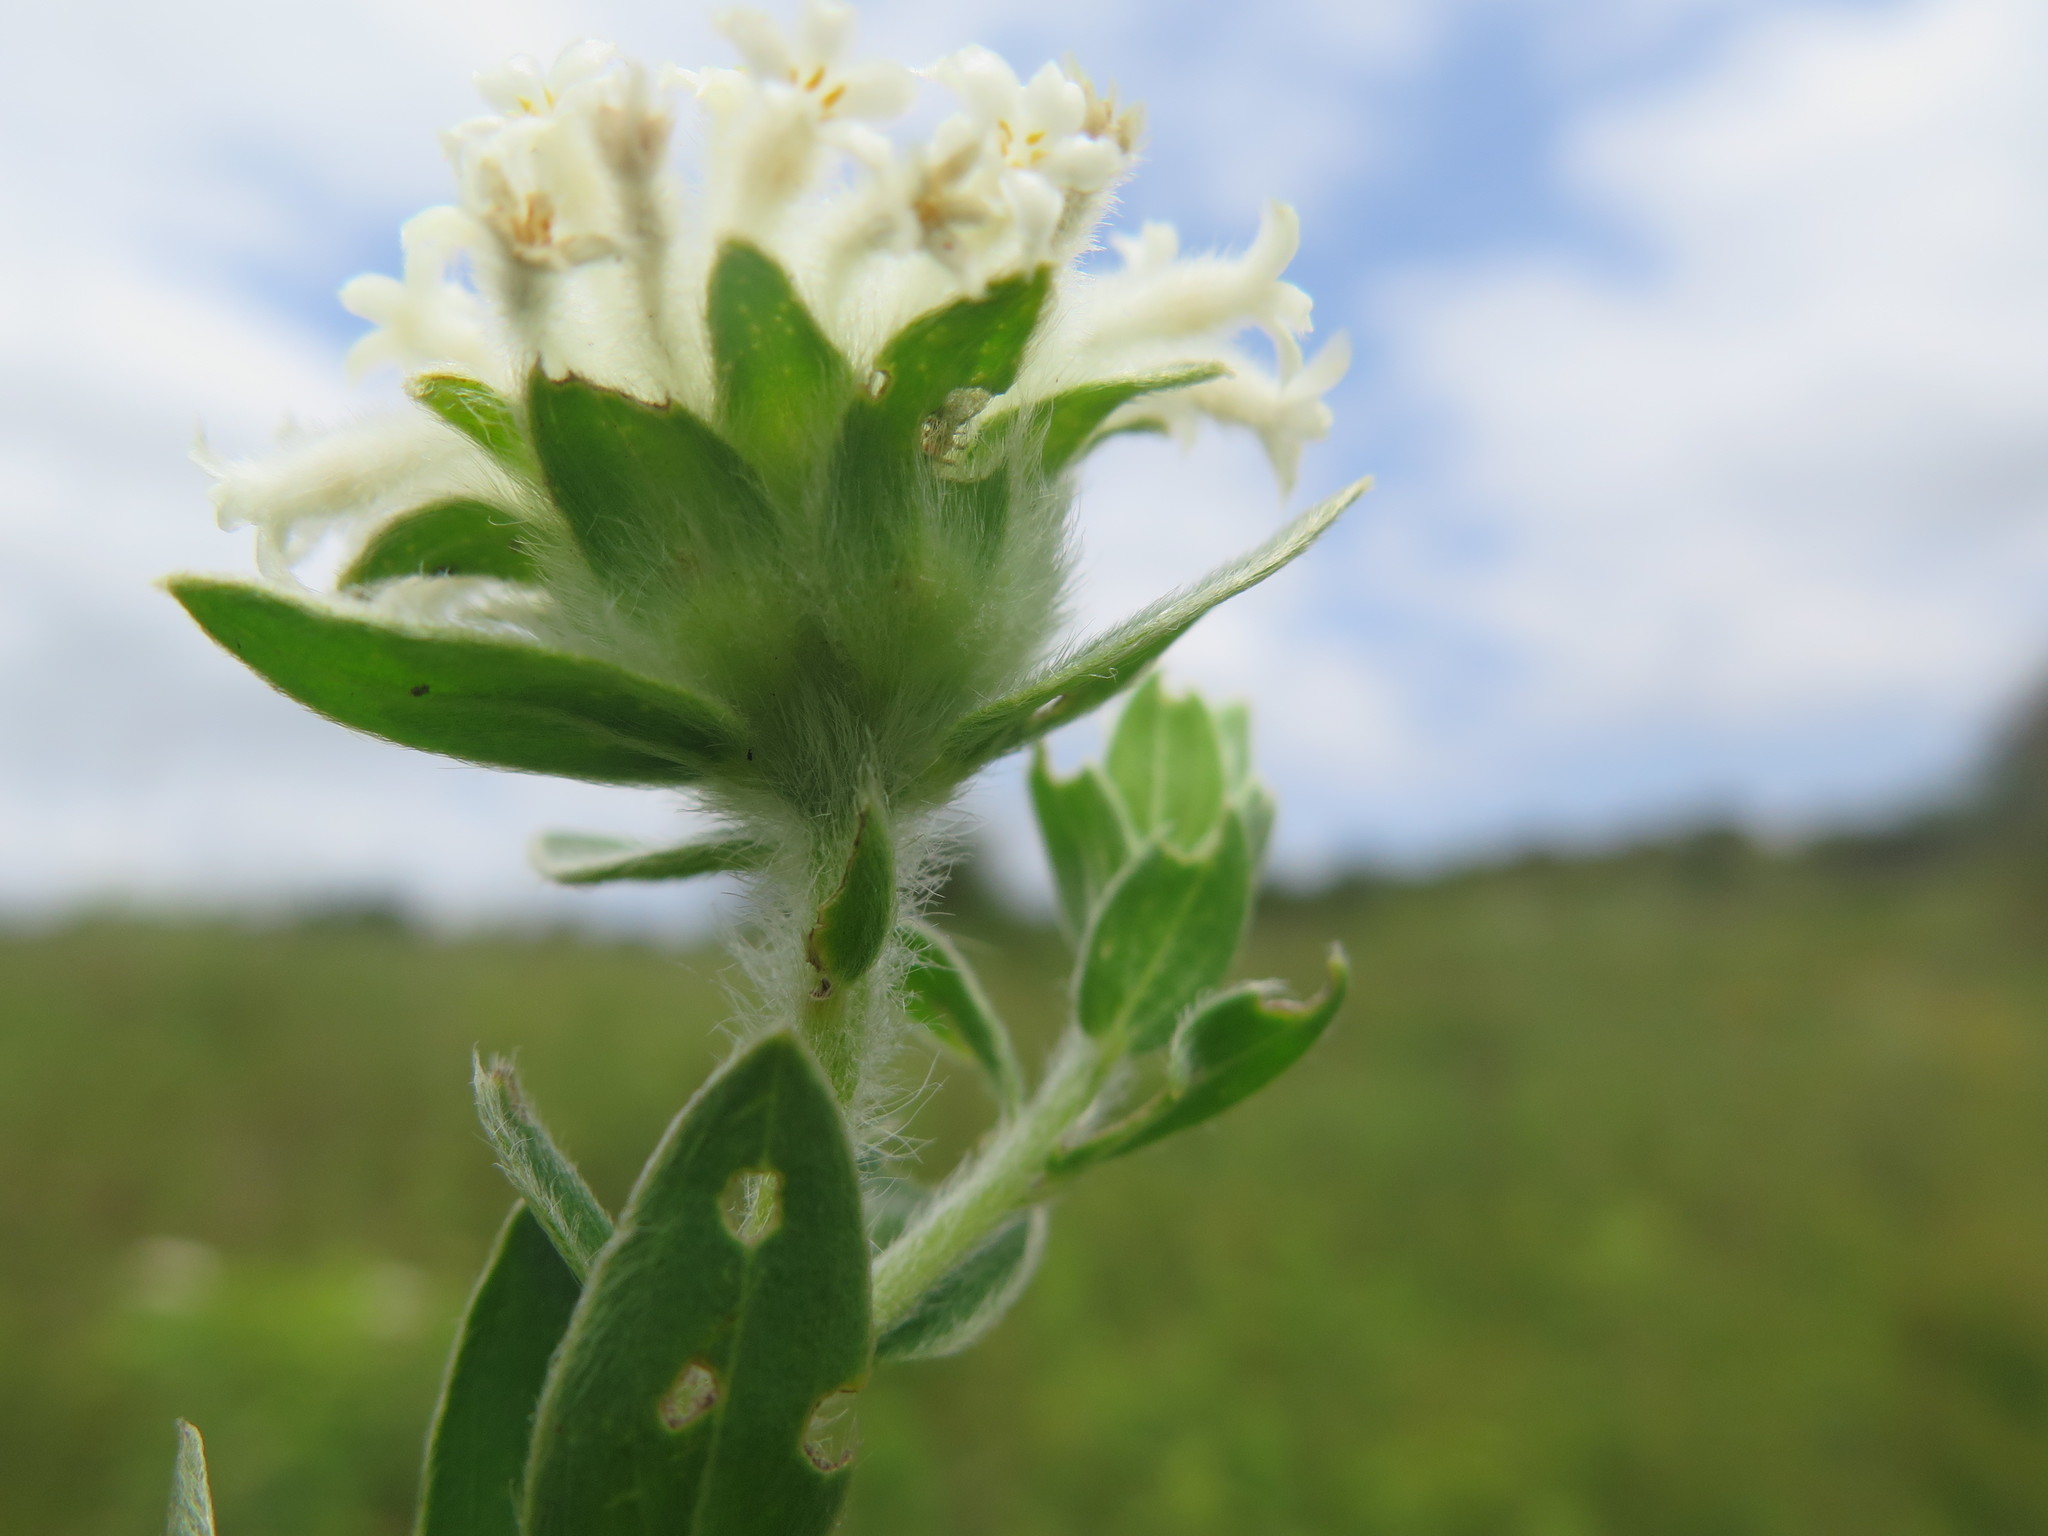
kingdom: Plantae
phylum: Tracheophyta
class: Magnoliopsida
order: Malvales
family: Thymelaeaceae
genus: Gnidia
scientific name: Gnidia calocephala
